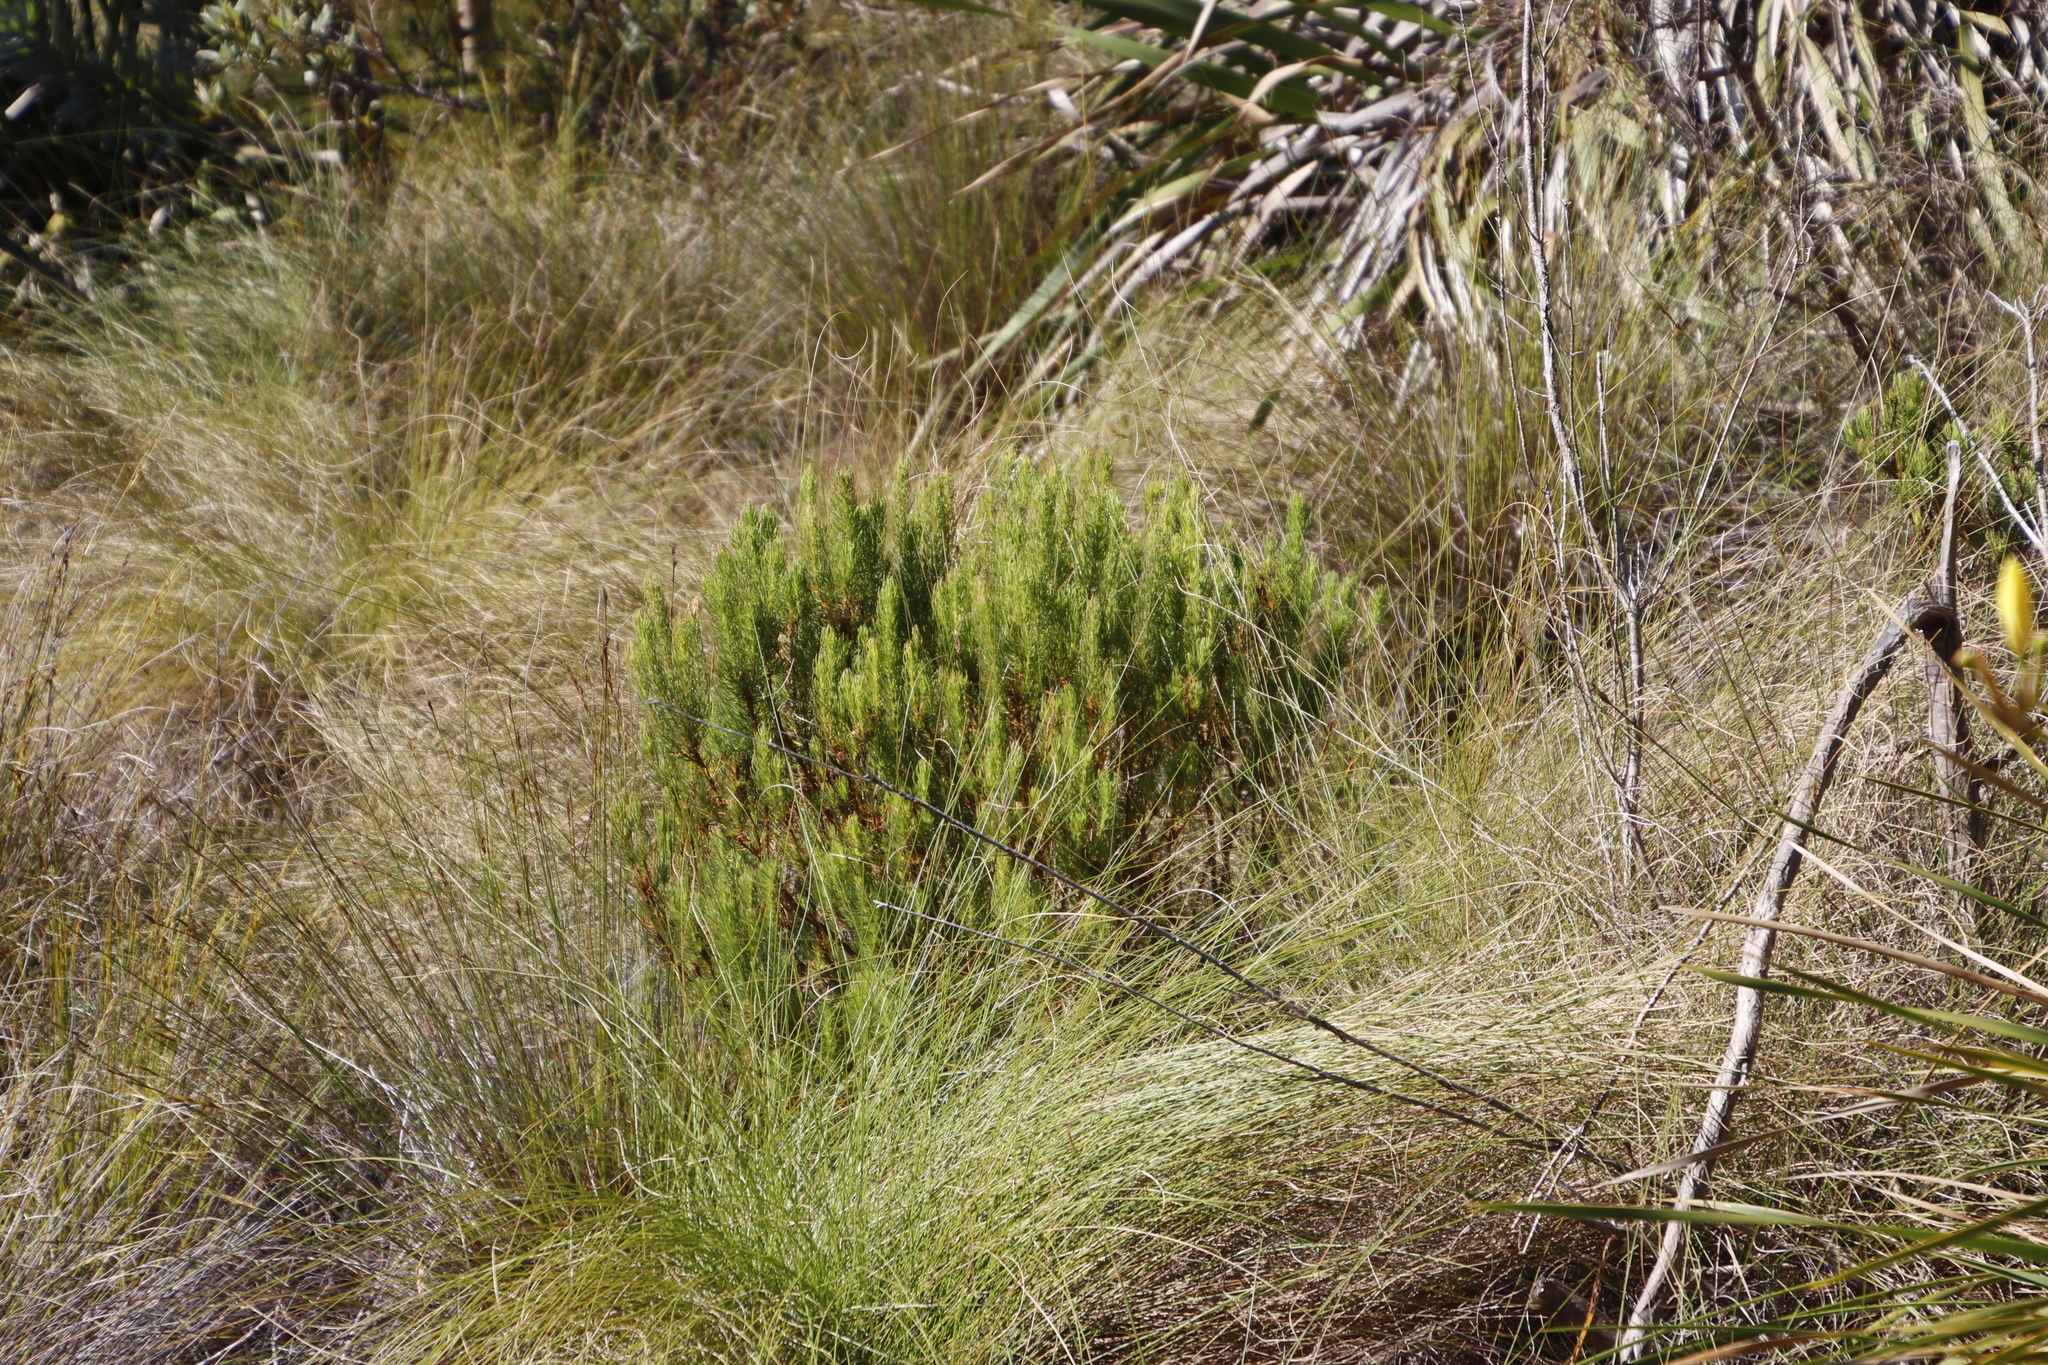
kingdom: Plantae
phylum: Tracheophyta
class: Magnoliopsida
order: Ericales
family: Ericaceae
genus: Erica
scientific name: Erica plukenetii
